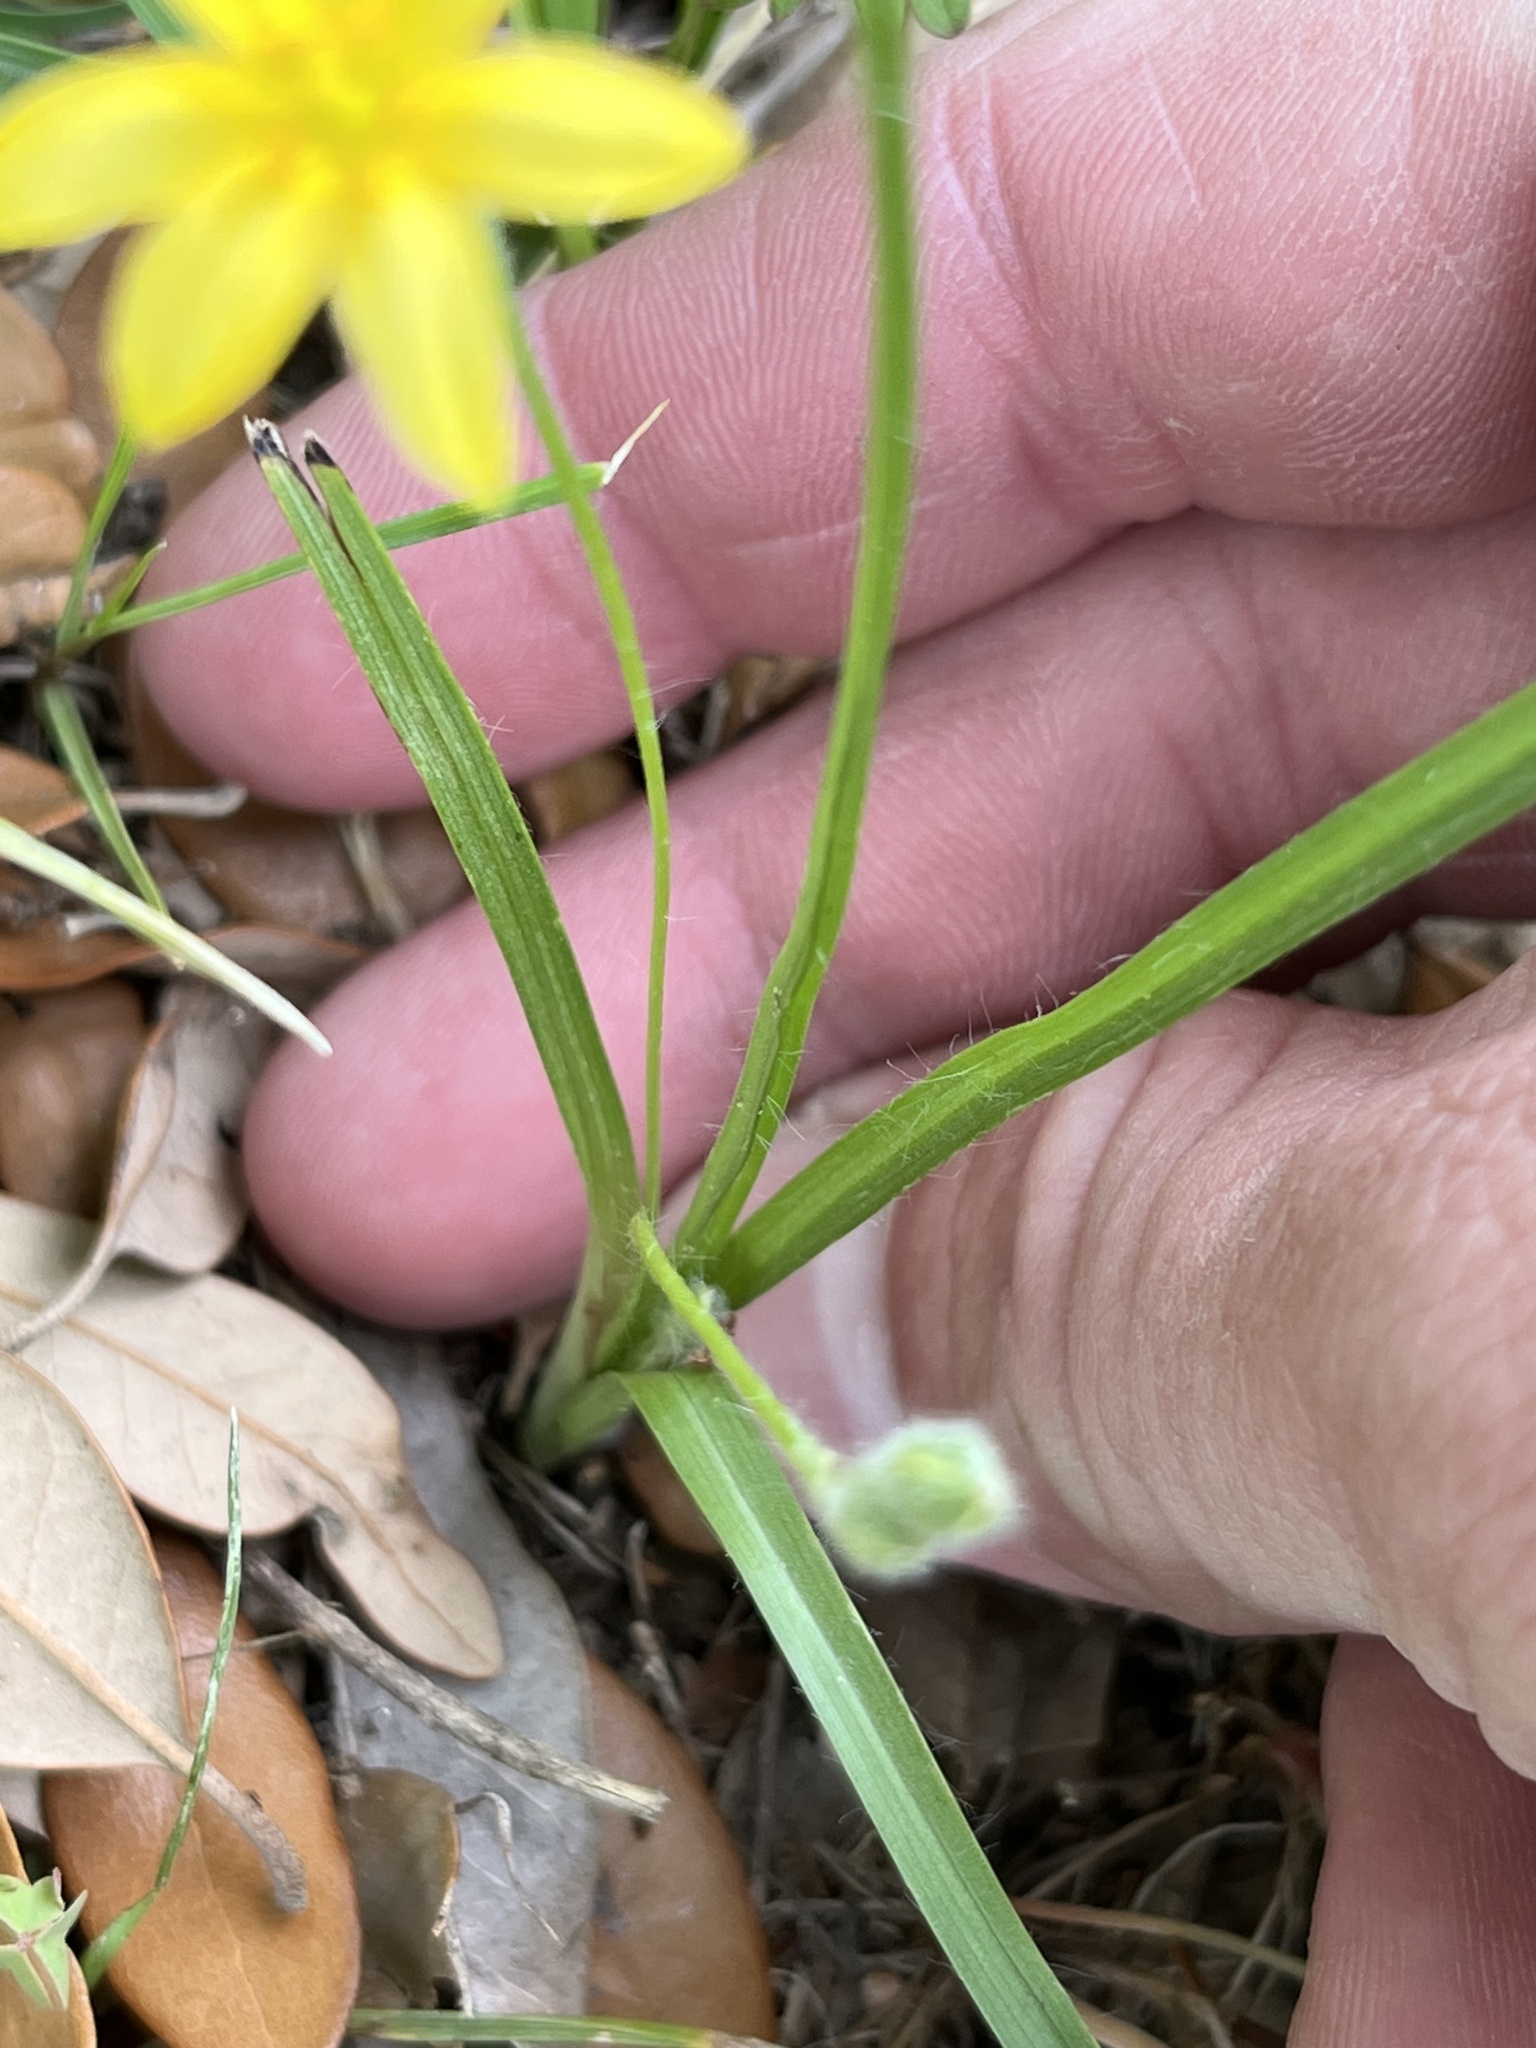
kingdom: Plantae
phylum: Tracheophyta
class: Liliopsida
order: Asparagales
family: Hypoxidaceae
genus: Hypoxis
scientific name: Hypoxis hirsuta
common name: Common goldstar
